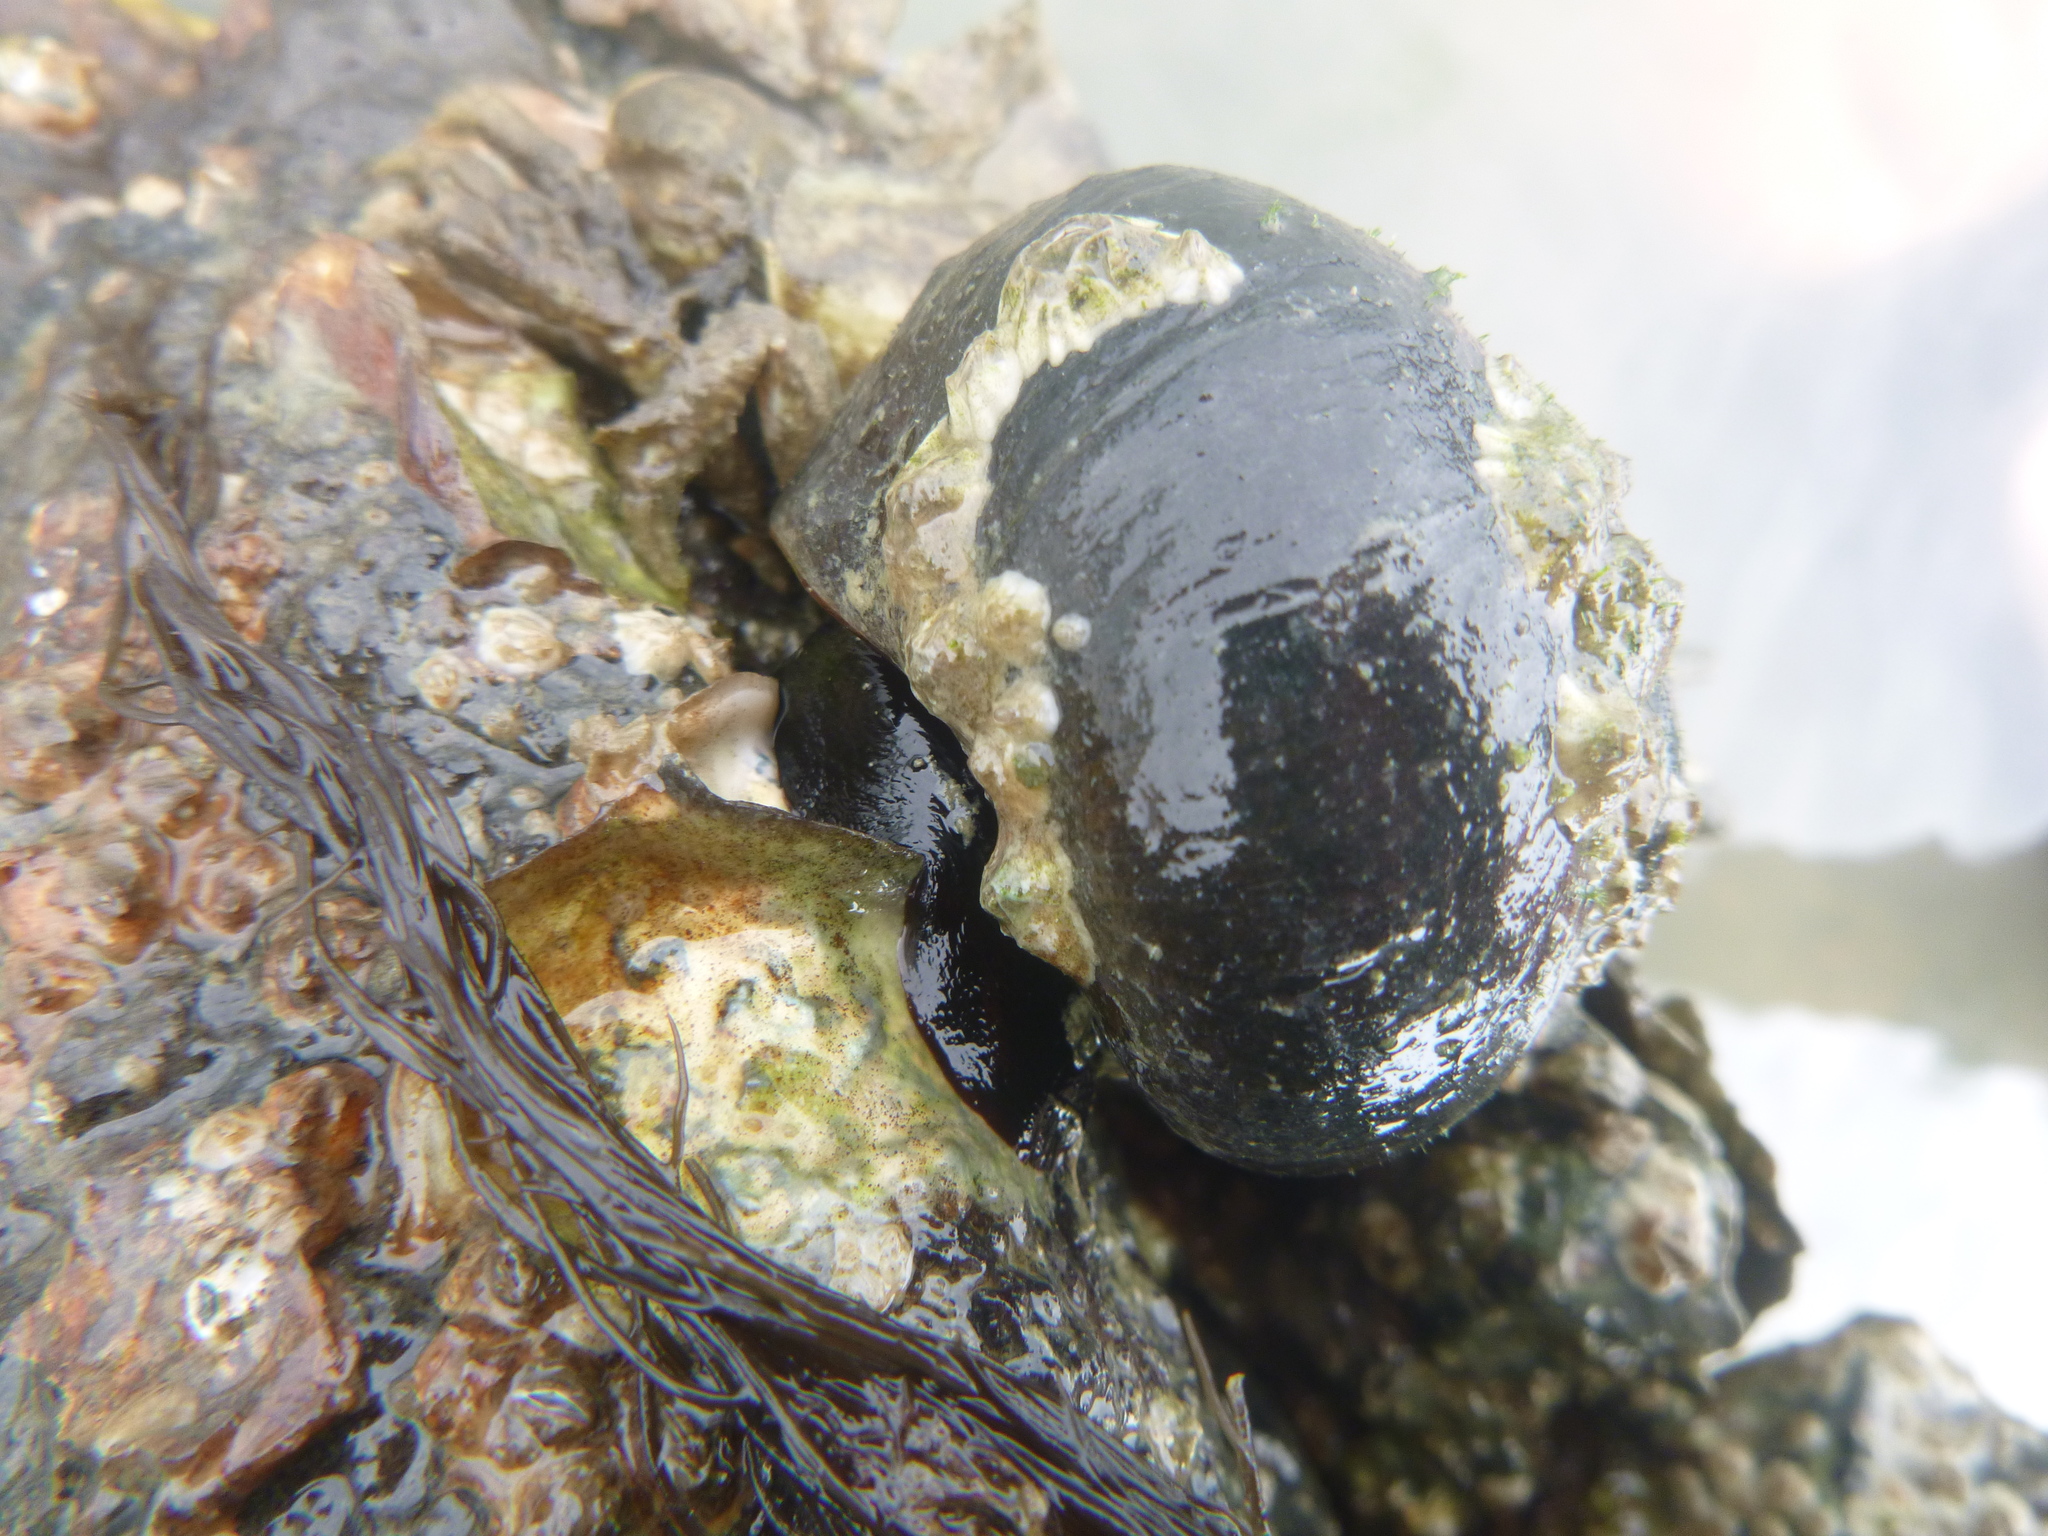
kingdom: Animalia
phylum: Mollusca
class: Gastropoda
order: Trochida
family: Turbinidae
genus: Lunella
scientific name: Lunella smaragda
